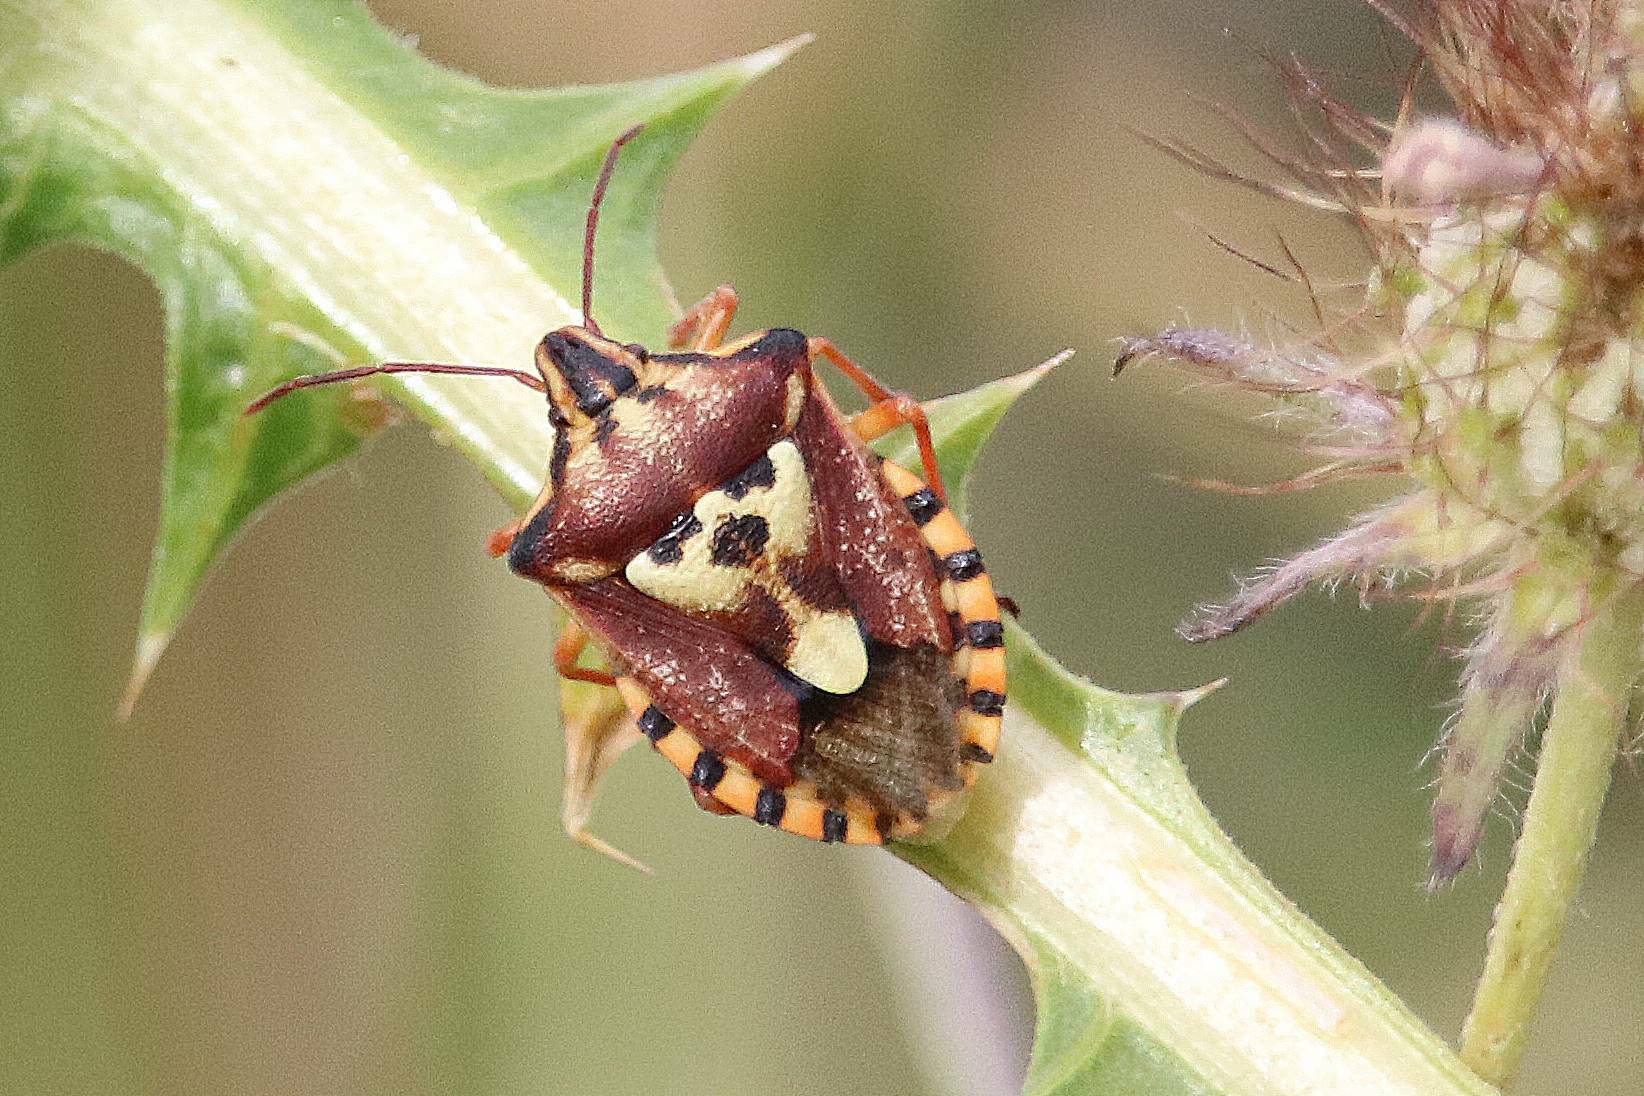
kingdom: Animalia
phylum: Arthropoda
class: Insecta
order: Hemiptera
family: Miridae
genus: Orthops
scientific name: Orthops kalmii
